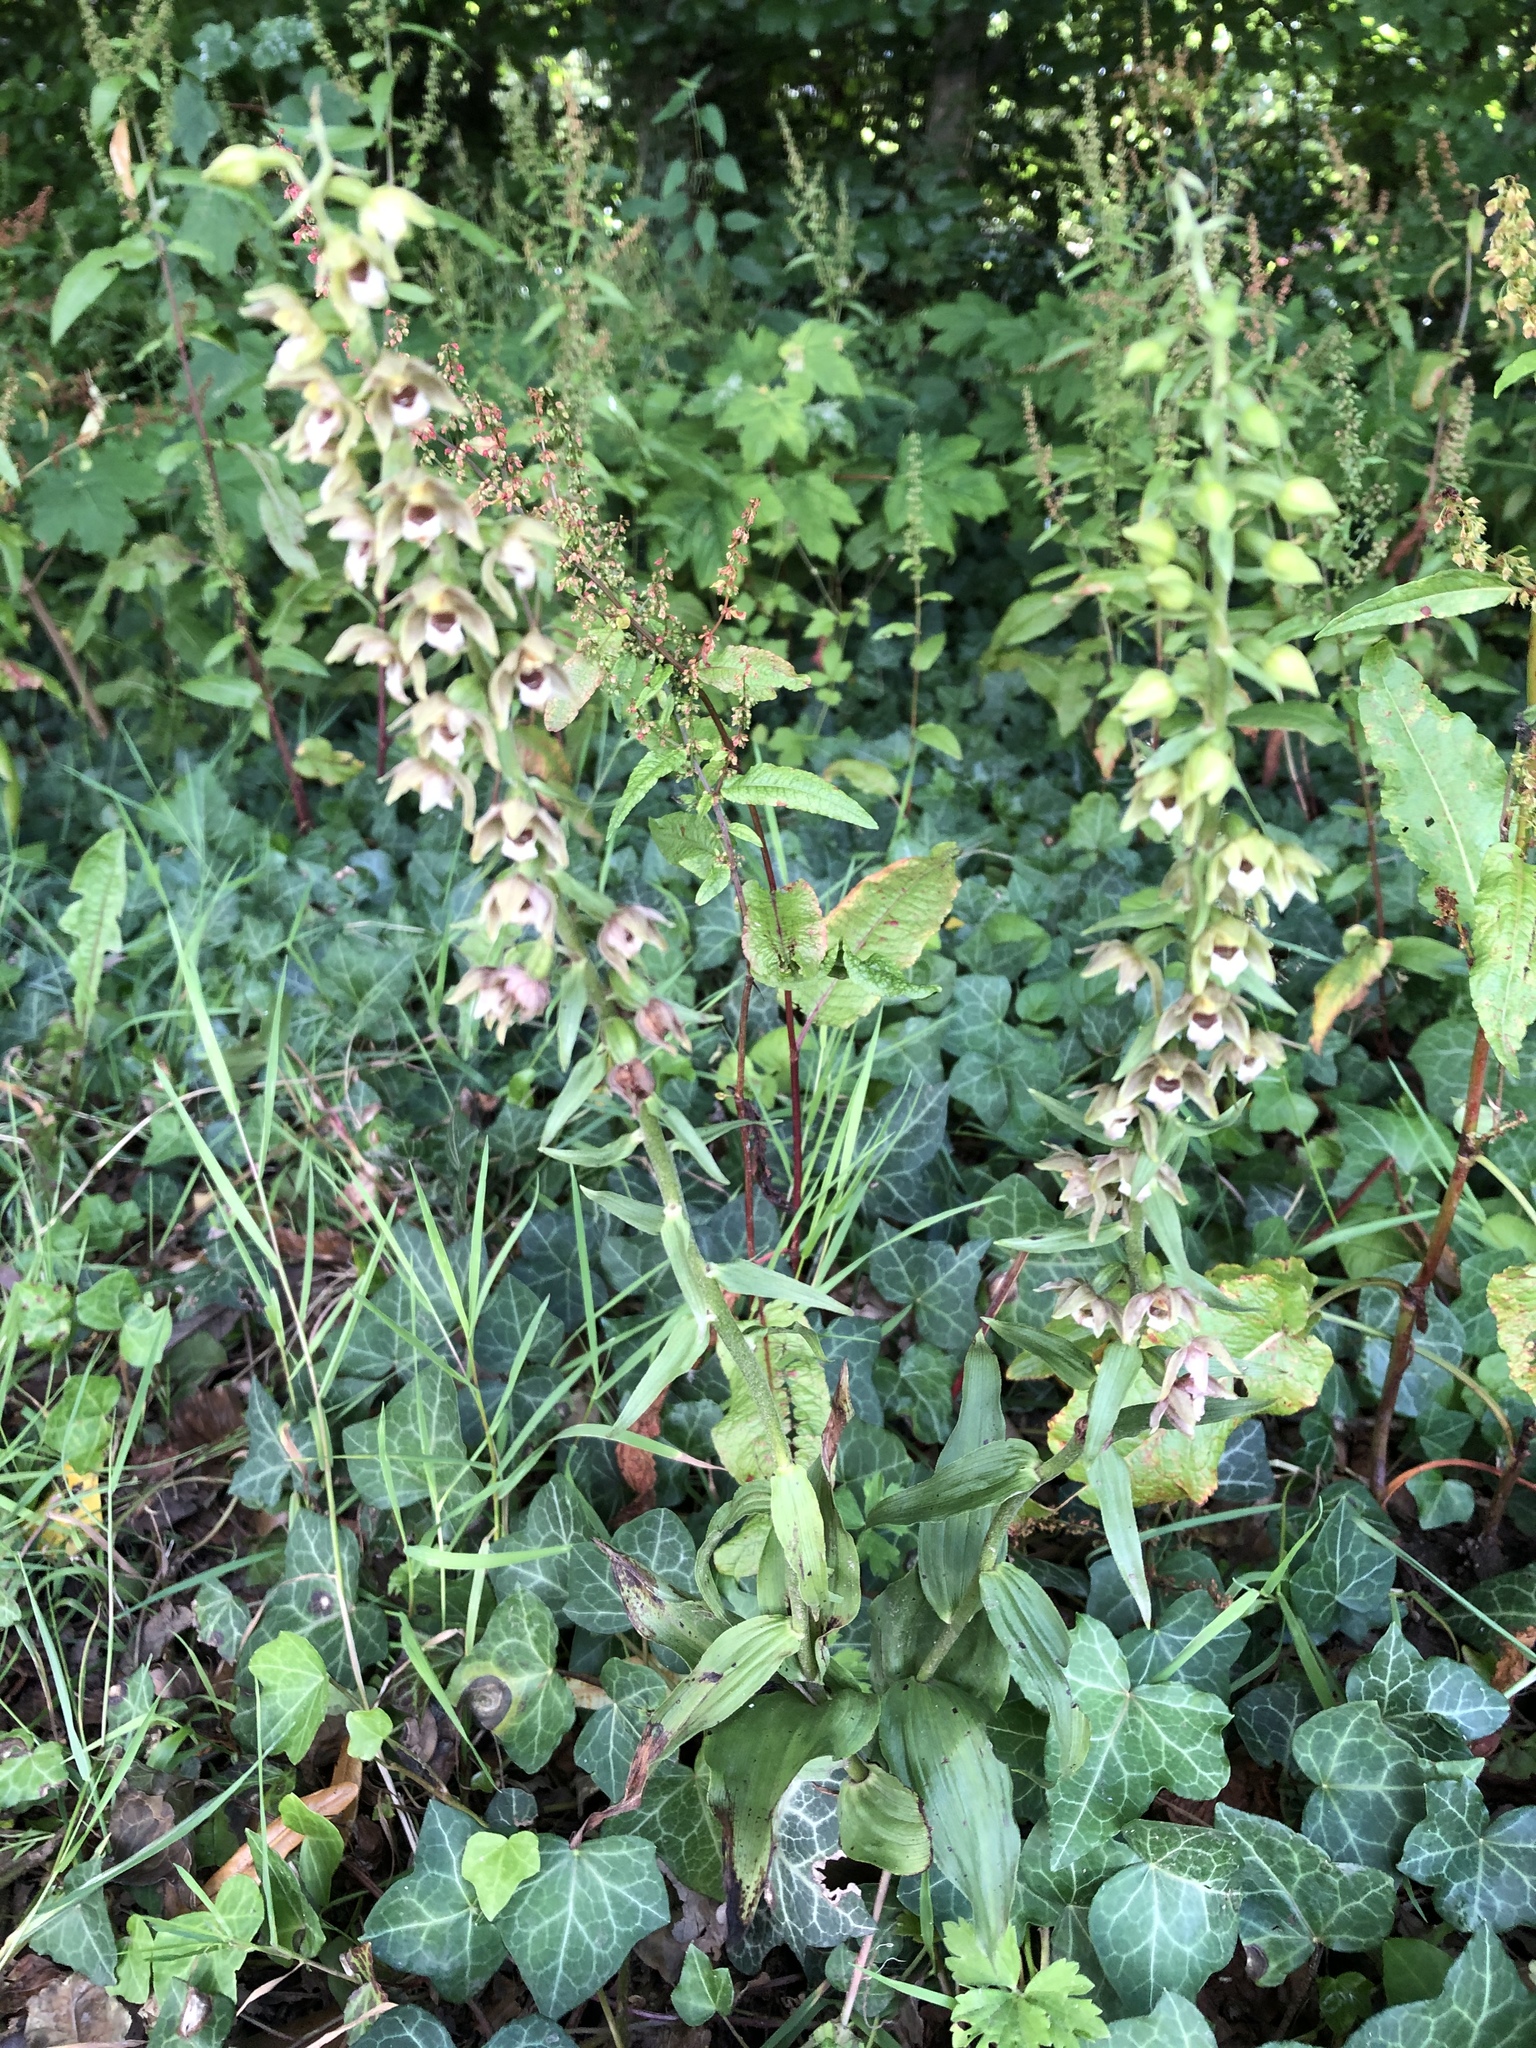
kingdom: Plantae
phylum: Tracheophyta
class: Liliopsida
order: Asparagales
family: Orchidaceae
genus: Epipactis
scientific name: Epipactis helleborine
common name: Broad-leaved helleborine
